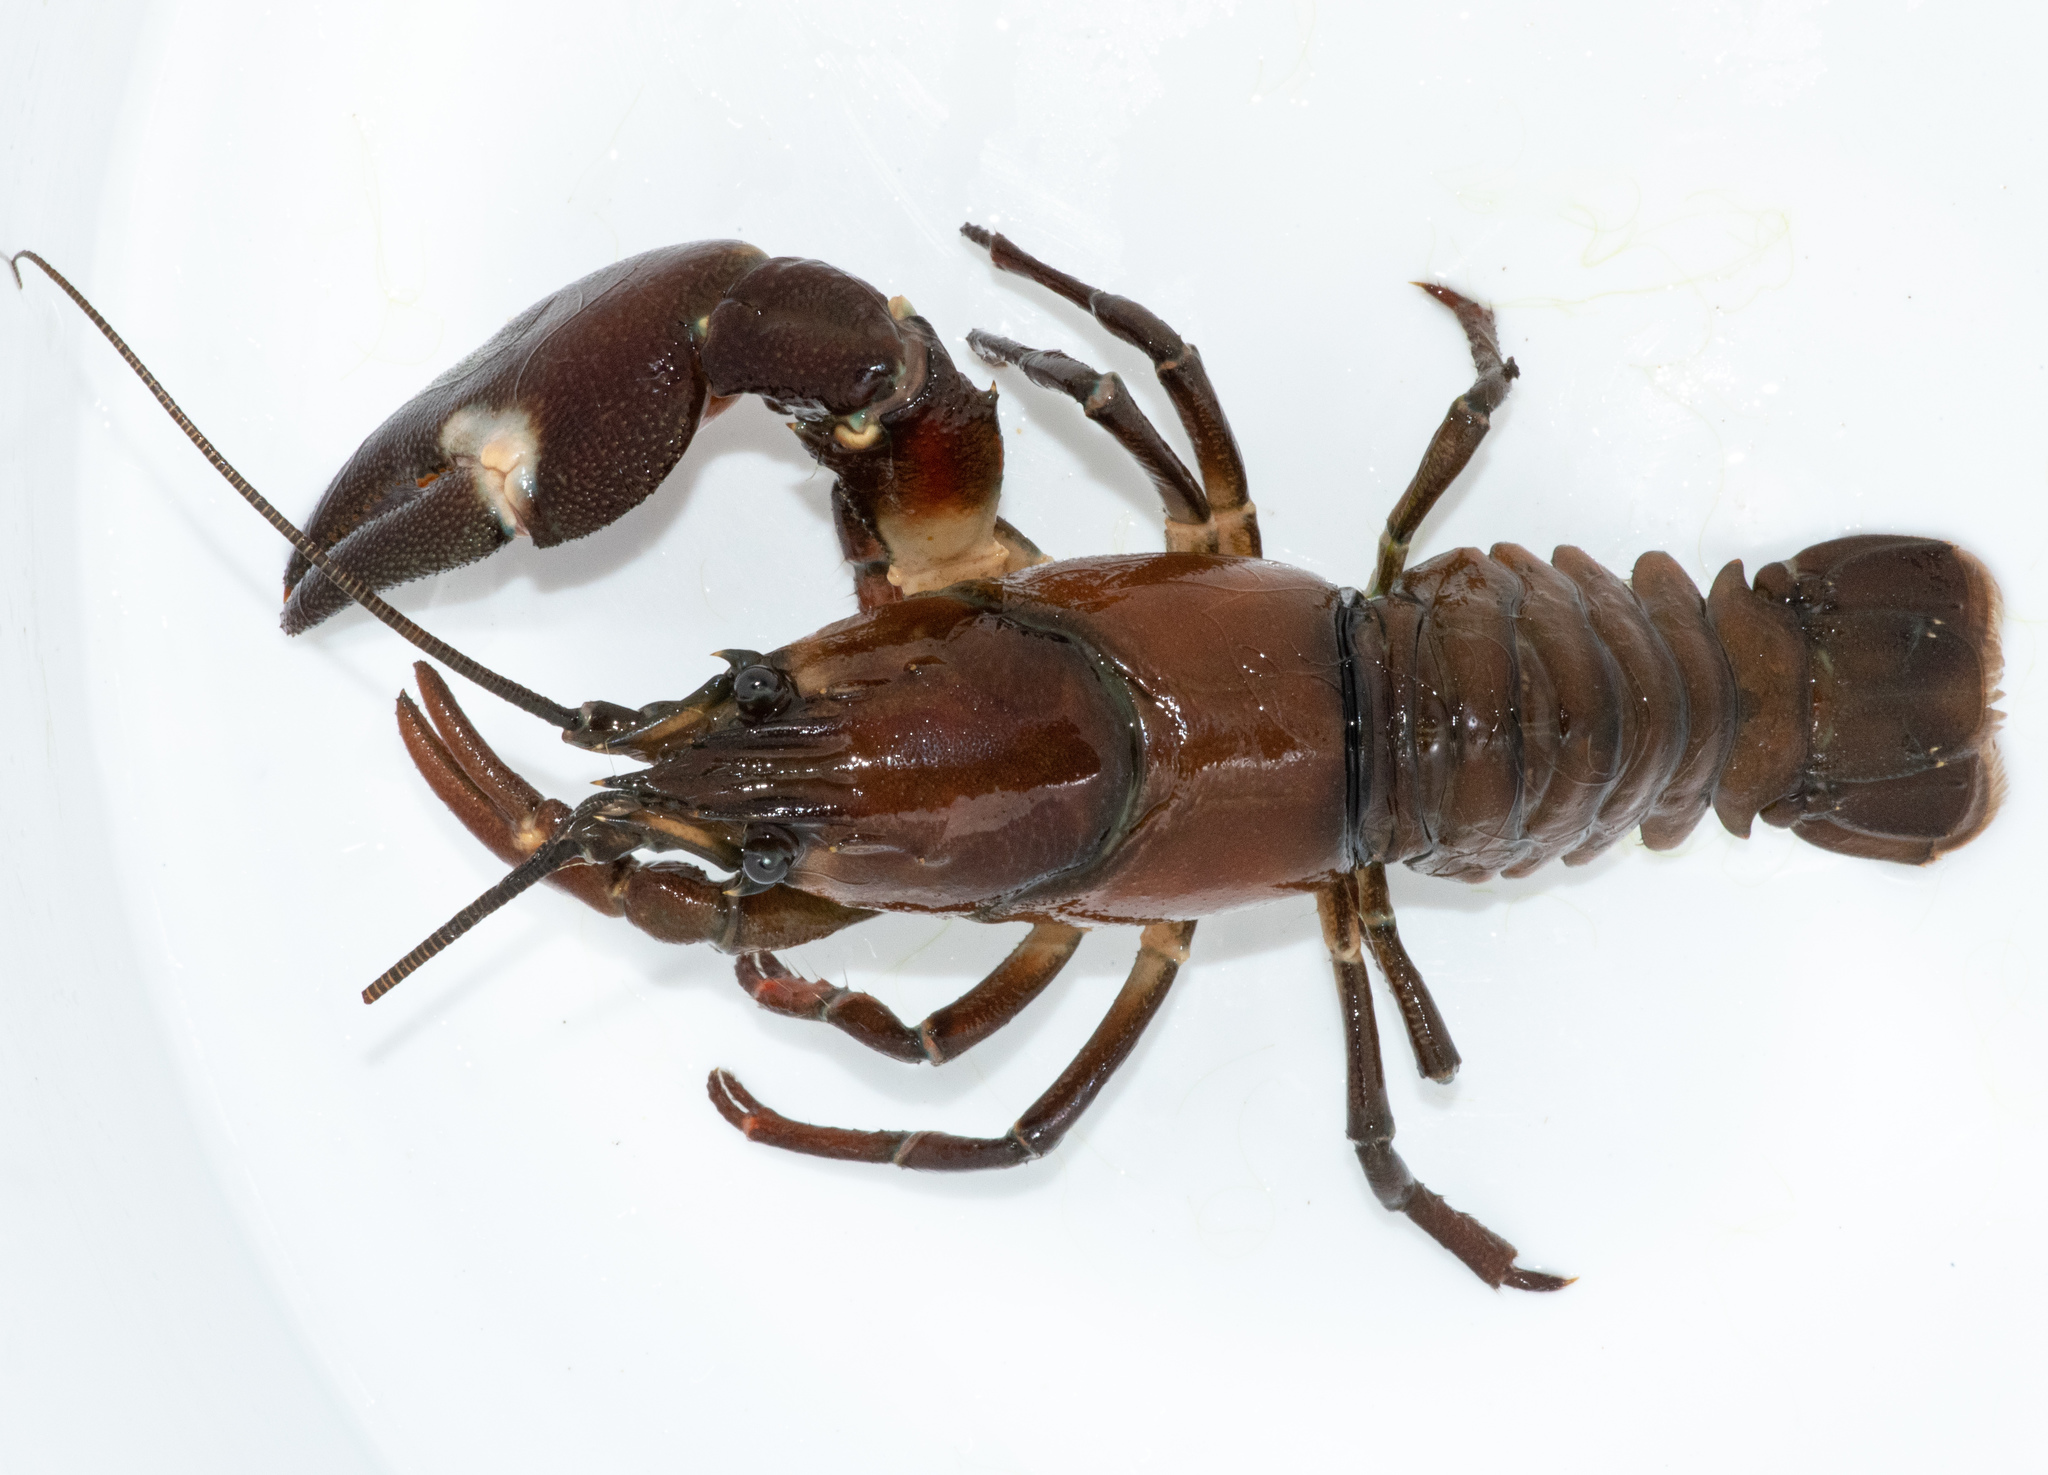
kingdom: Animalia
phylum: Arthropoda
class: Malacostraca
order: Decapoda
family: Astacidae
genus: Pacifastacus
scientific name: Pacifastacus leniusculus
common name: Signal crayfish
